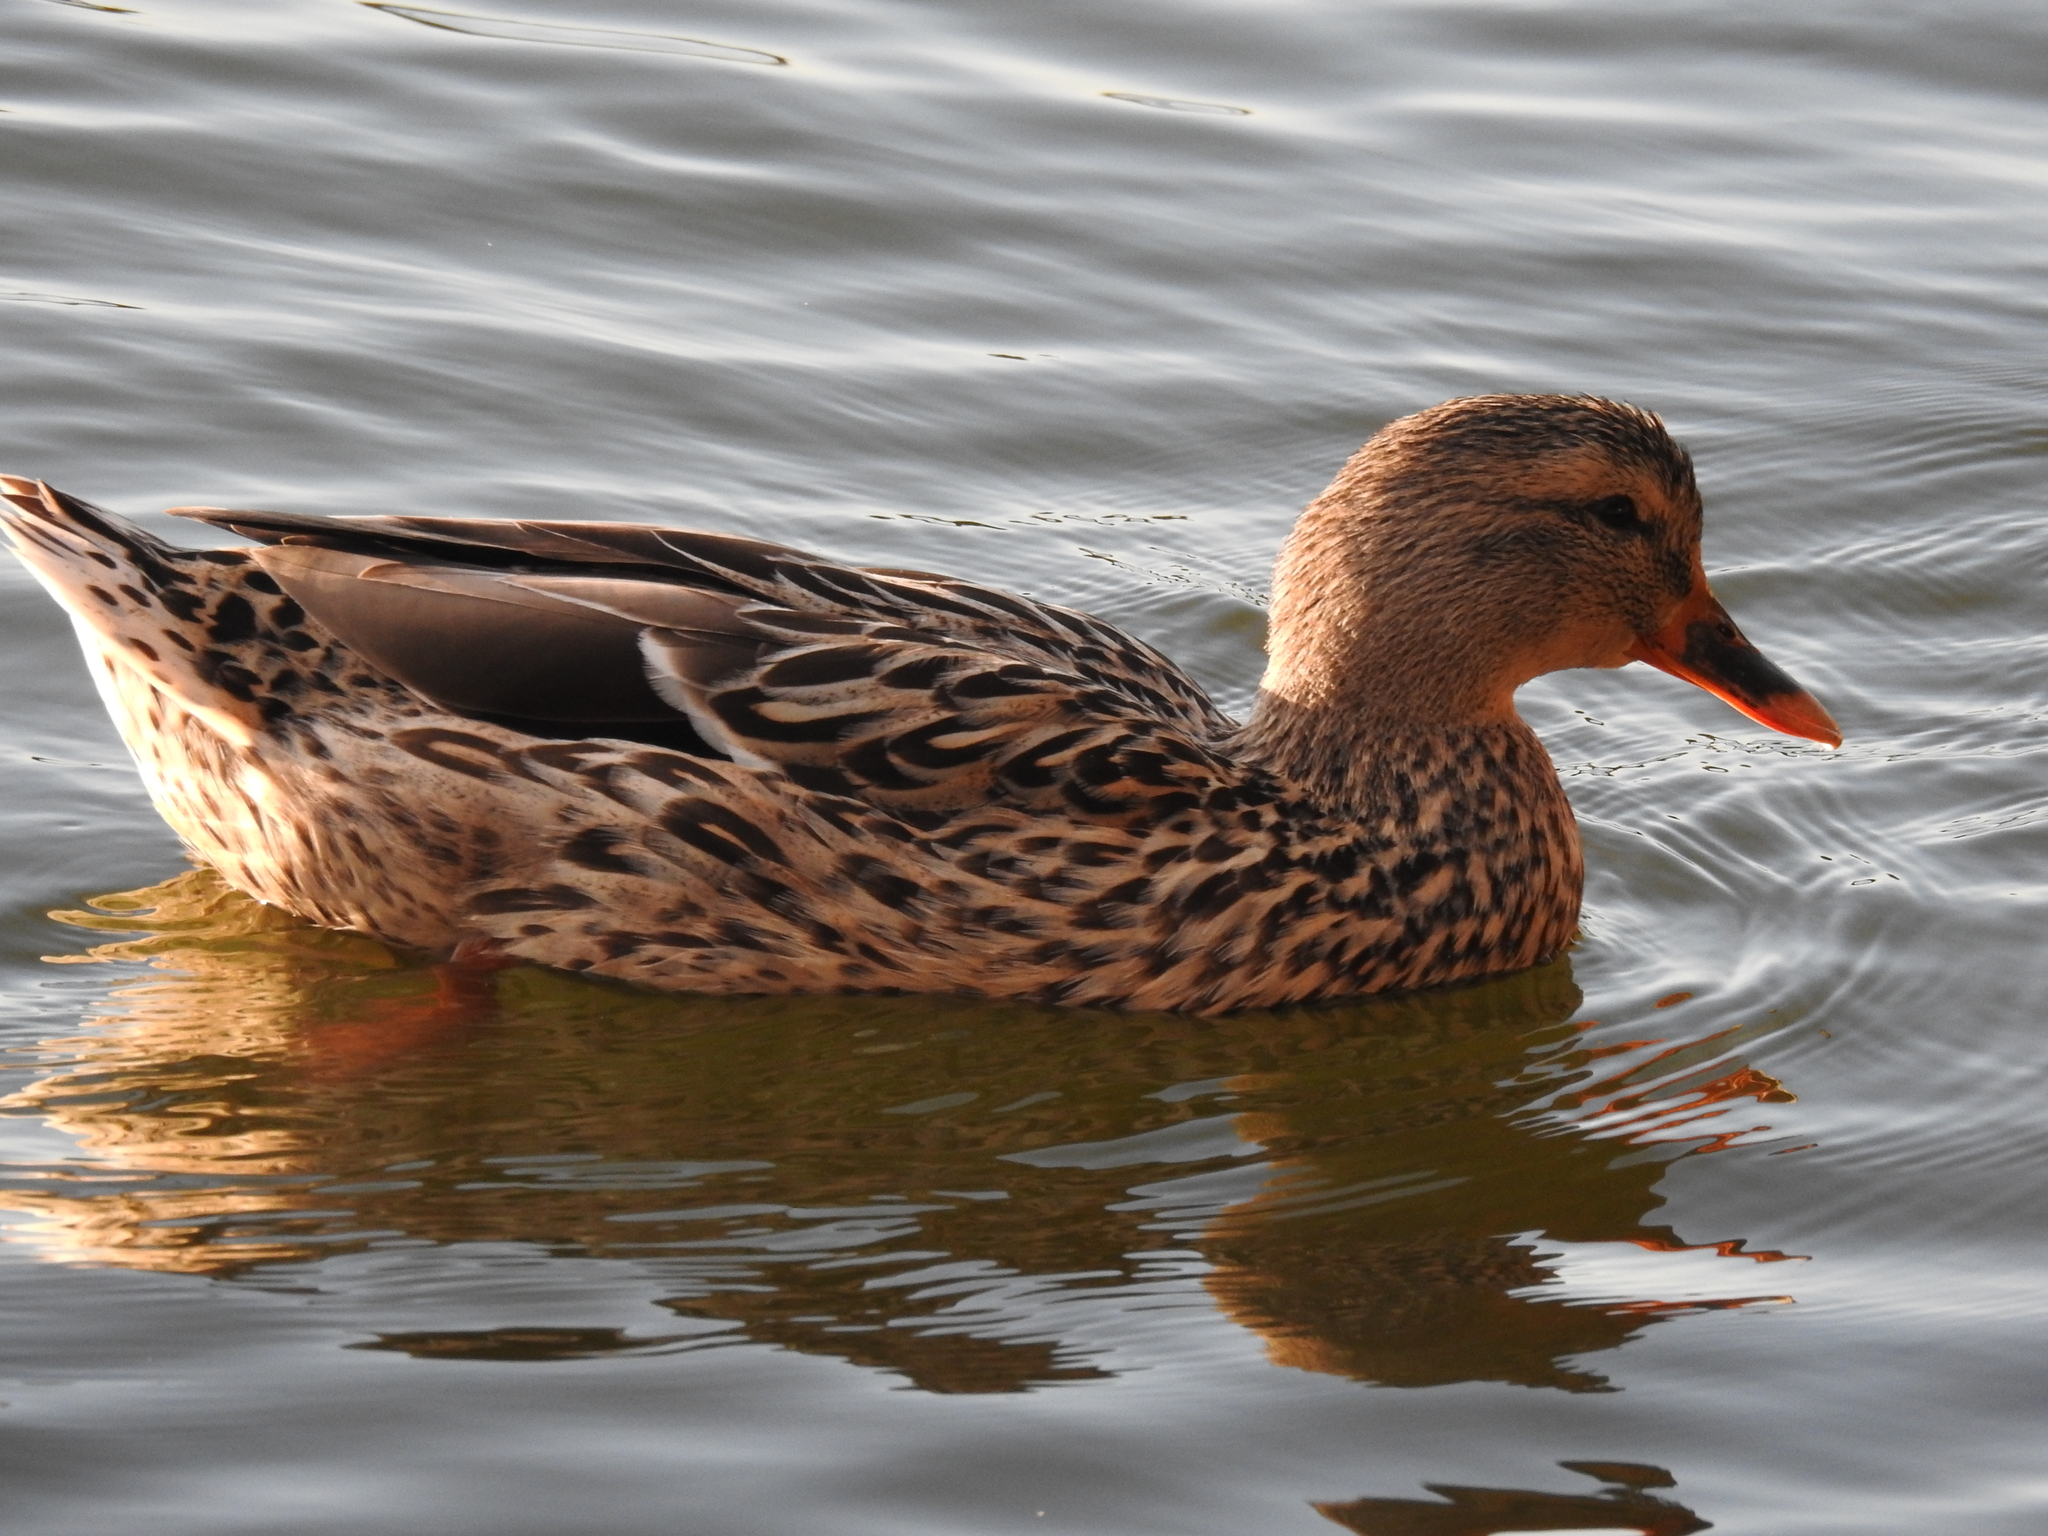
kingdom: Animalia
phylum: Chordata
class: Aves
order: Anseriformes
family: Anatidae
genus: Anas
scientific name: Anas platyrhynchos
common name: Mallard
